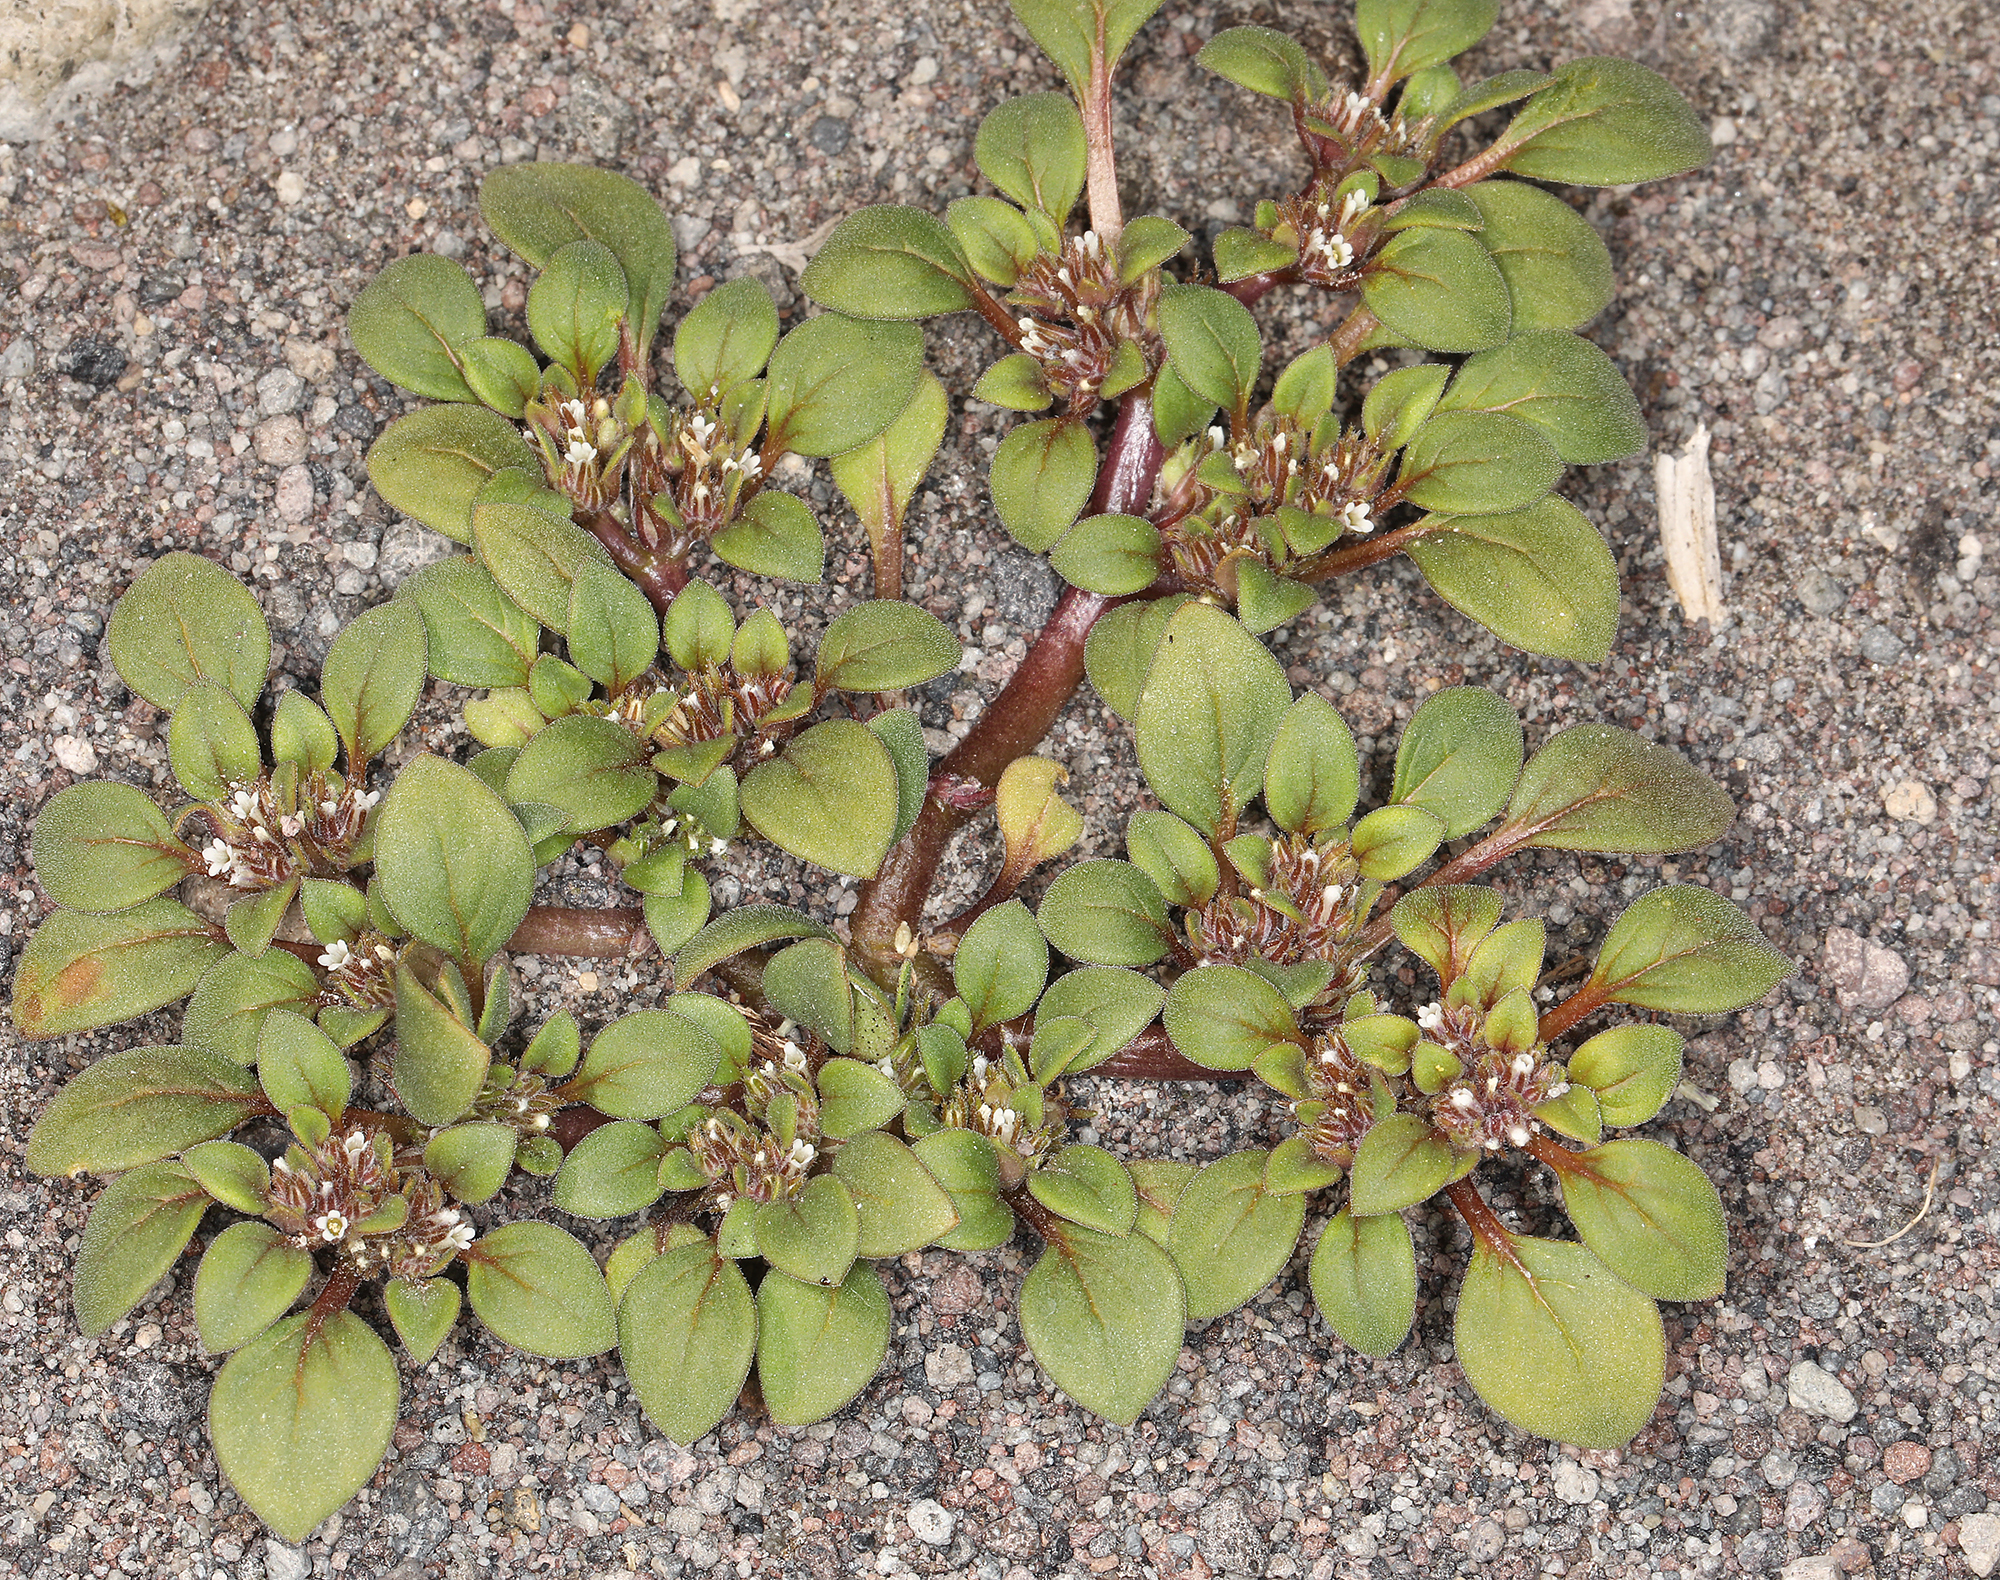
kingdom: Plantae
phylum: Tracheophyta
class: Magnoliopsida
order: Boraginales
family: Hydrophyllaceae
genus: Phacelia
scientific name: Phacelia cookei
